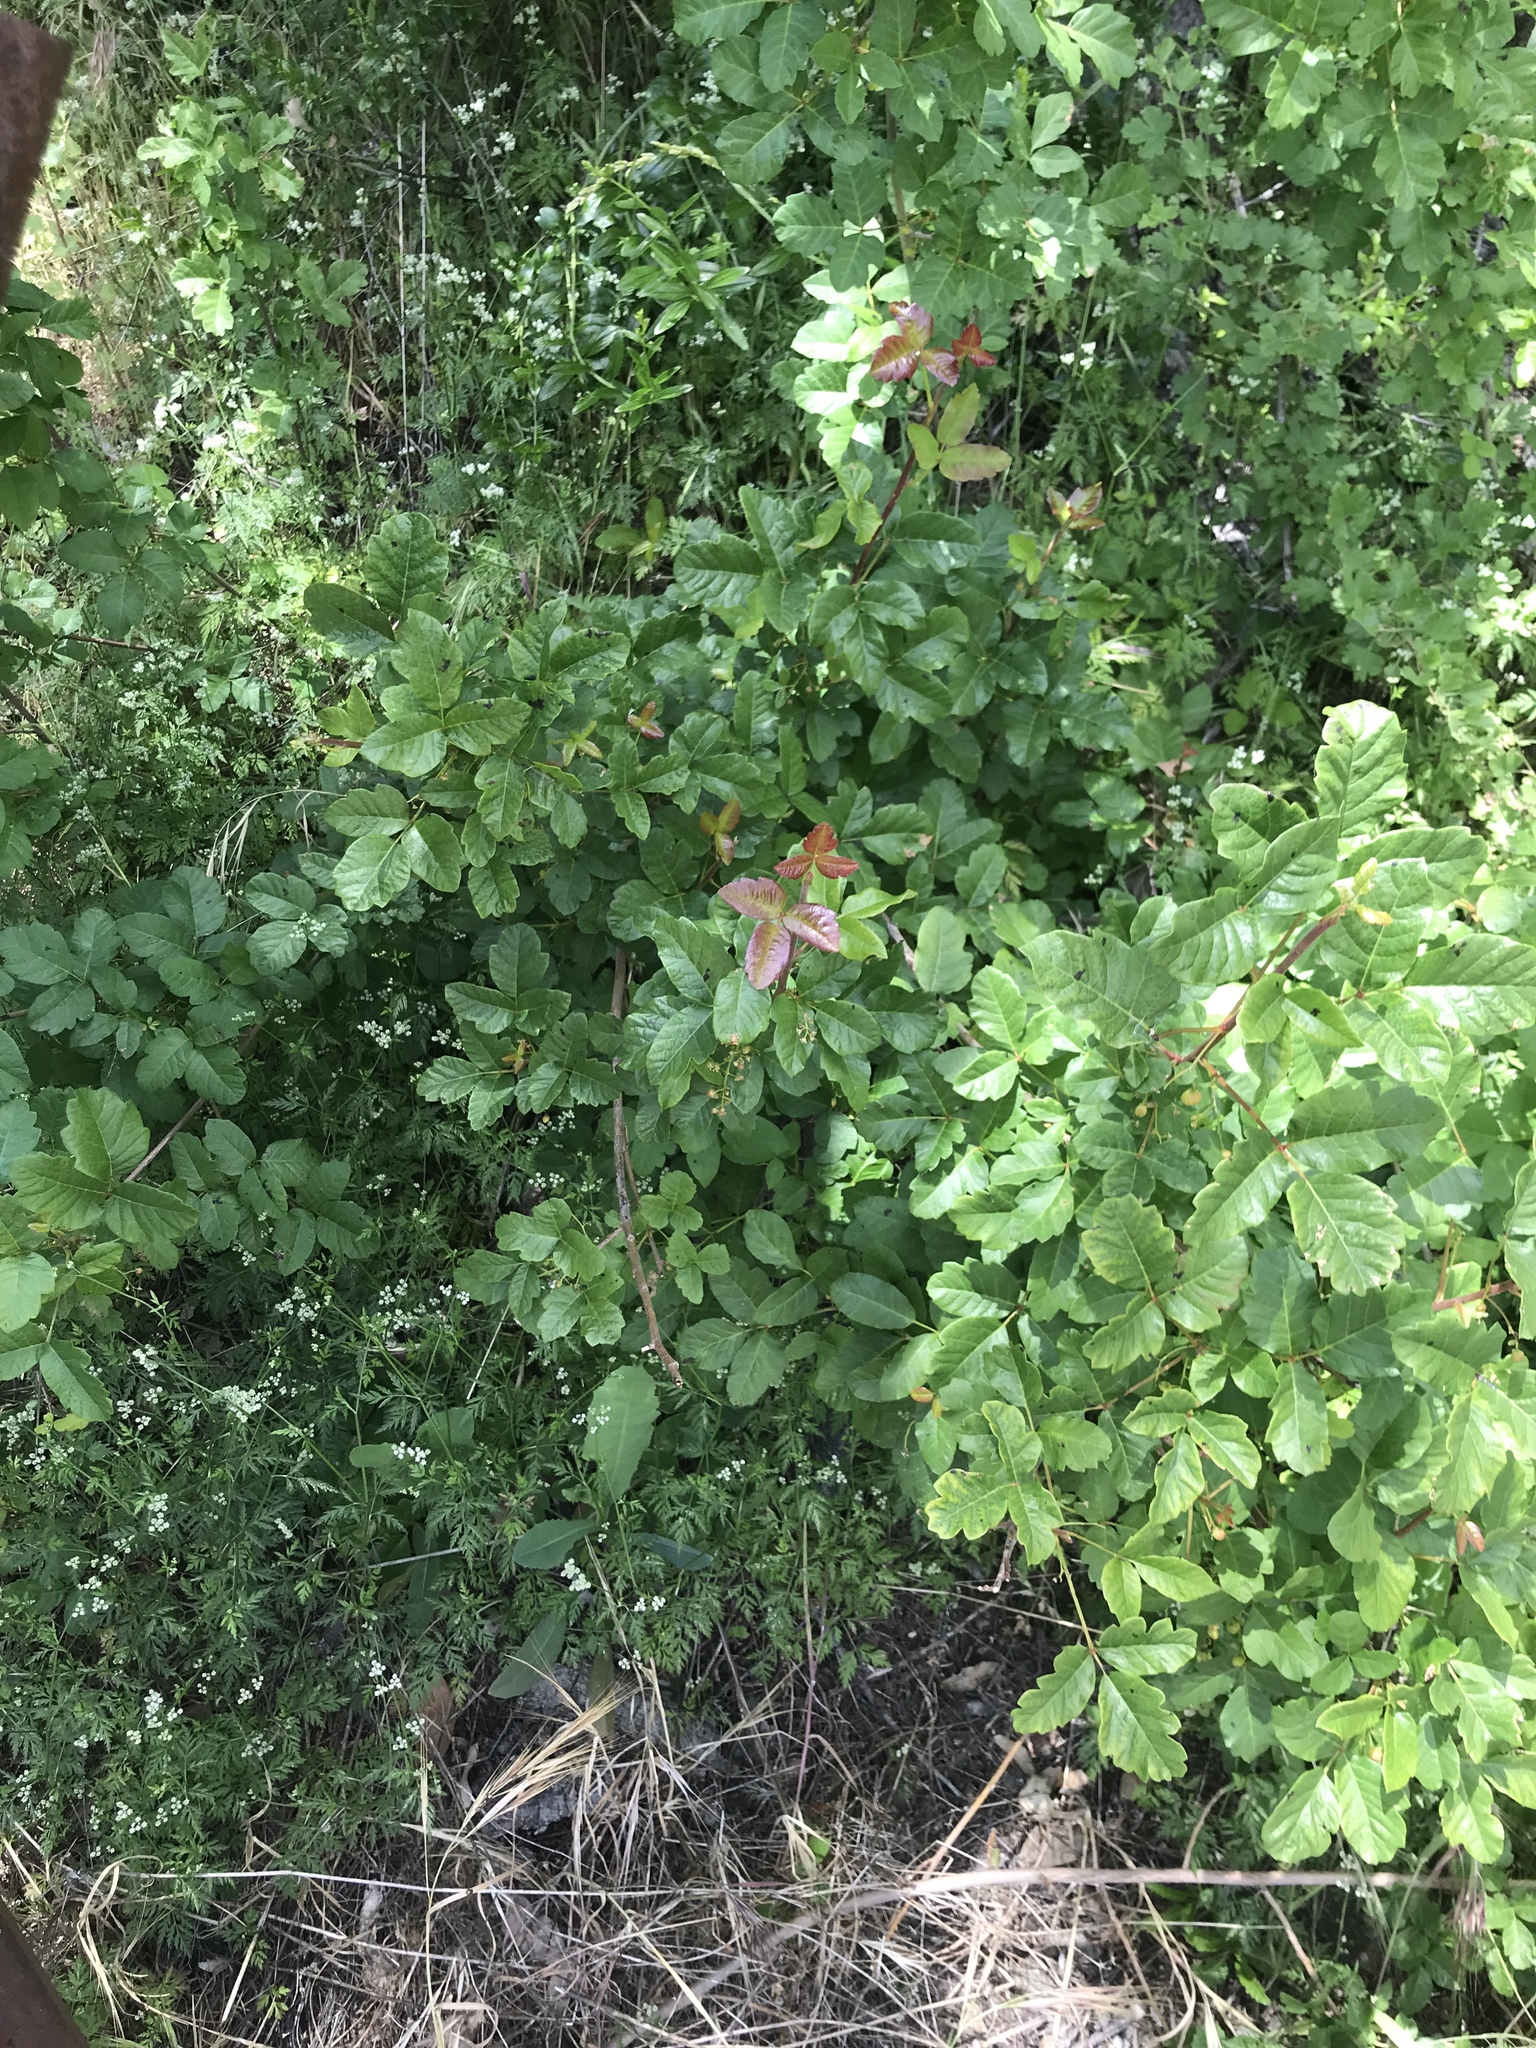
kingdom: Plantae
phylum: Tracheophyta
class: Magnoliopsida
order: Sapindales
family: Anacardiaceae
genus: Toxicodendron
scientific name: Toxicodendron diversilobum
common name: Pacific poison-oak
